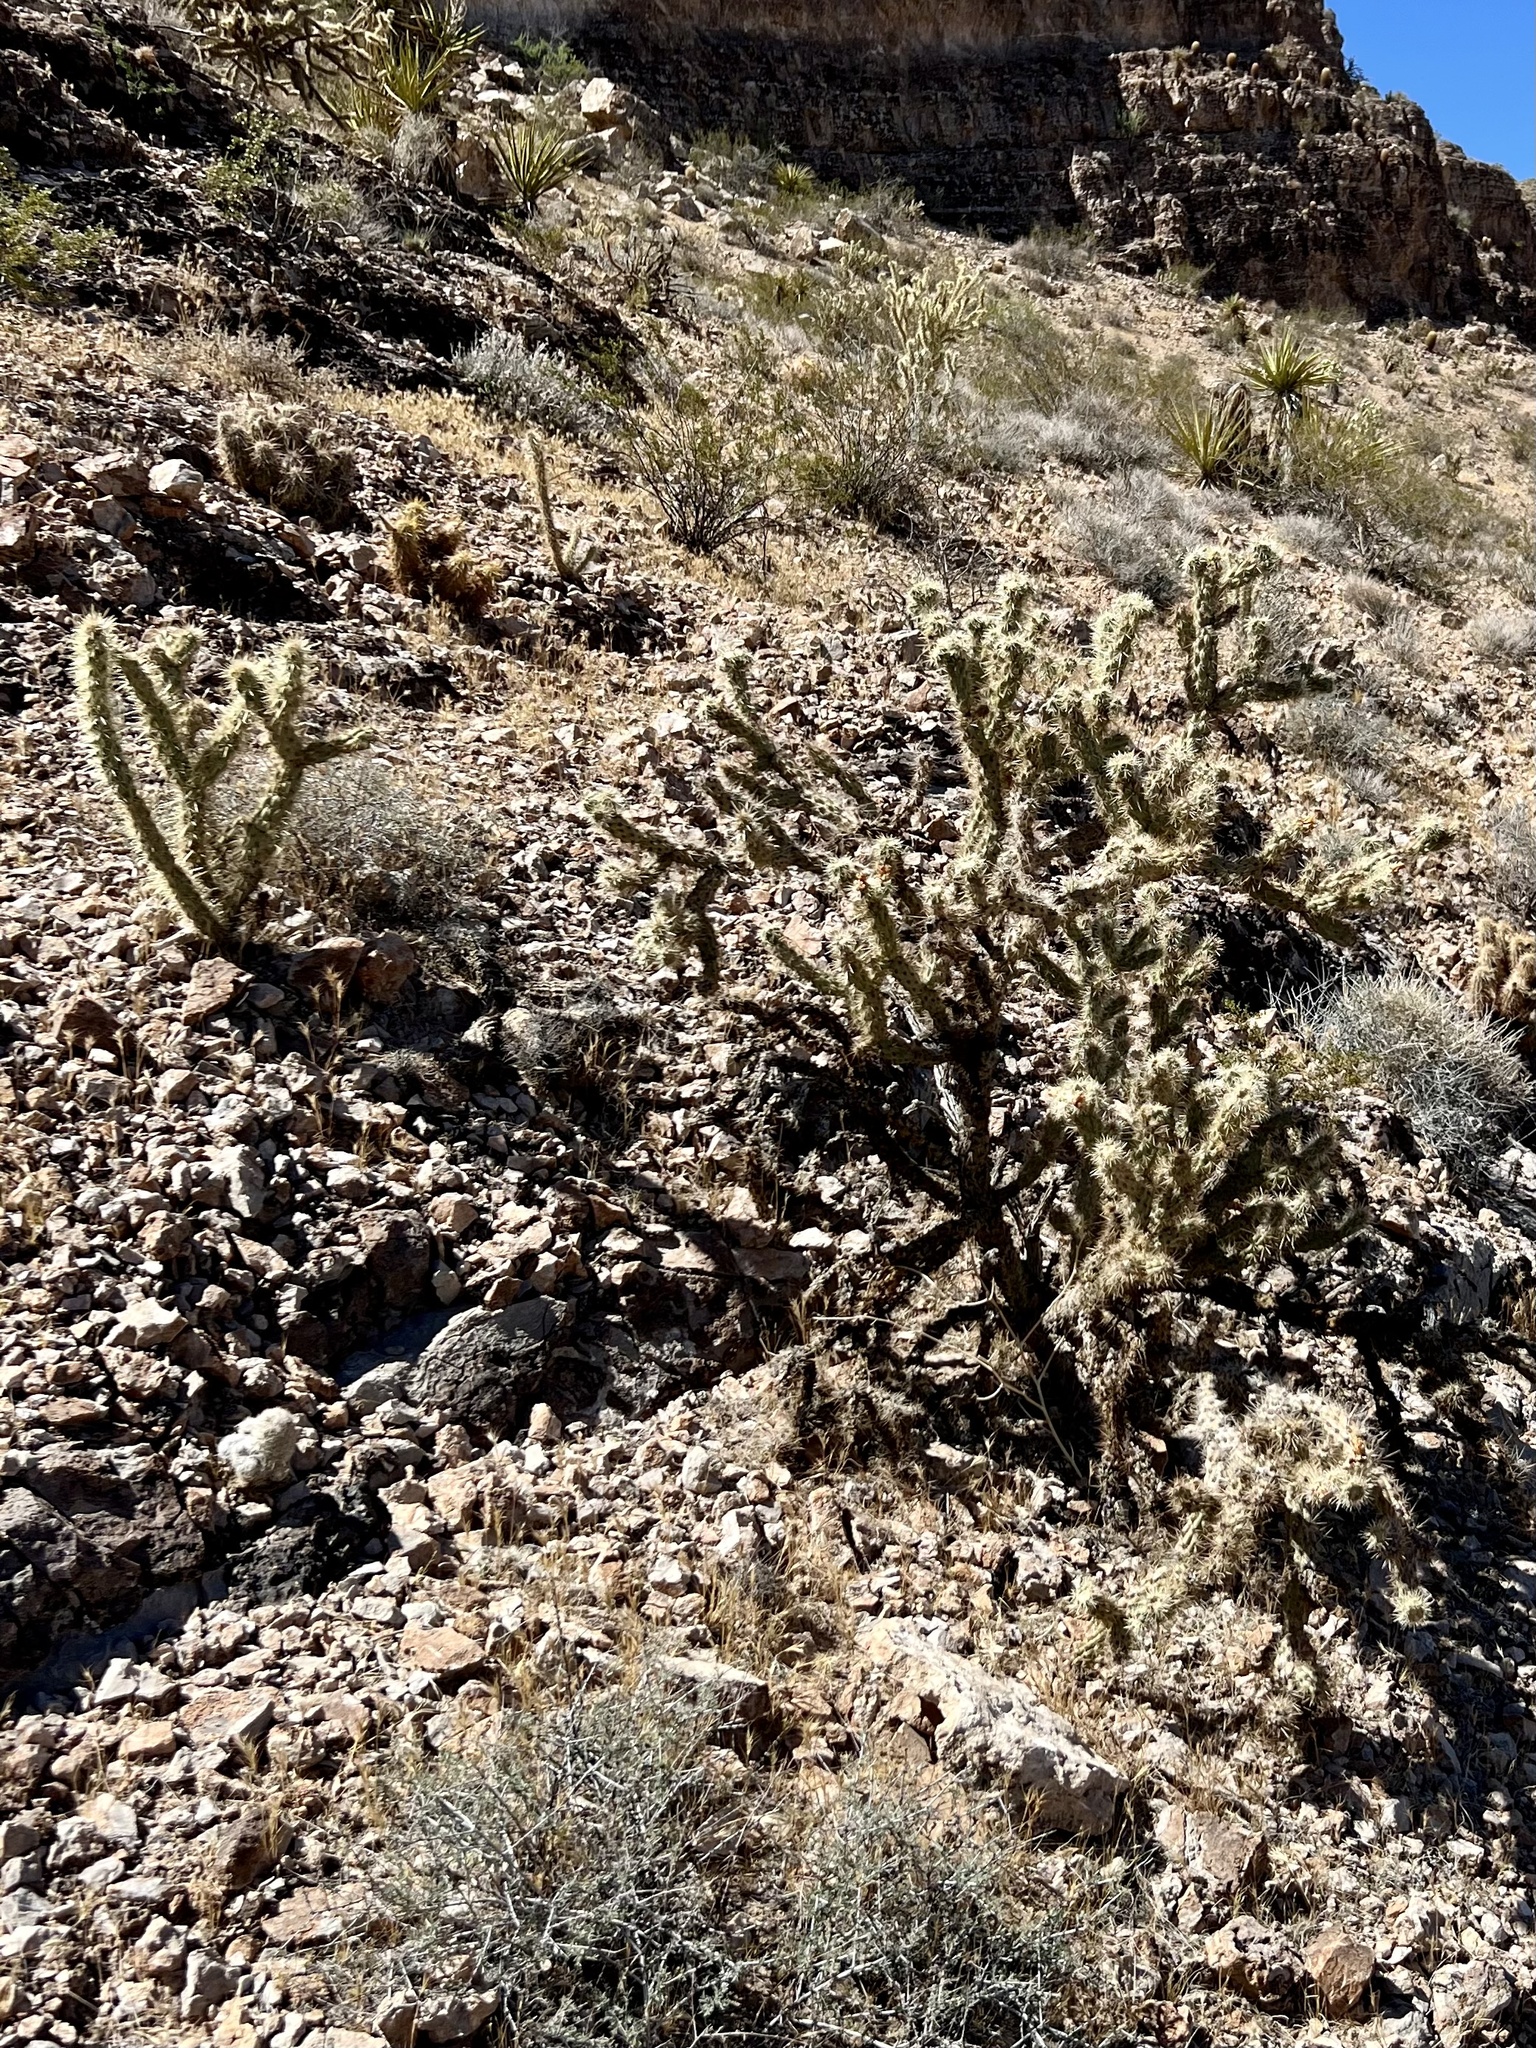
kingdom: Plantae
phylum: Tracheophyta
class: Magnoliopsida
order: Caryophyllales
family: Cactaceae
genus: Cylindropuntia
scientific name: Cylindropuntia acanthocarpa
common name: Buckhorn cholla
